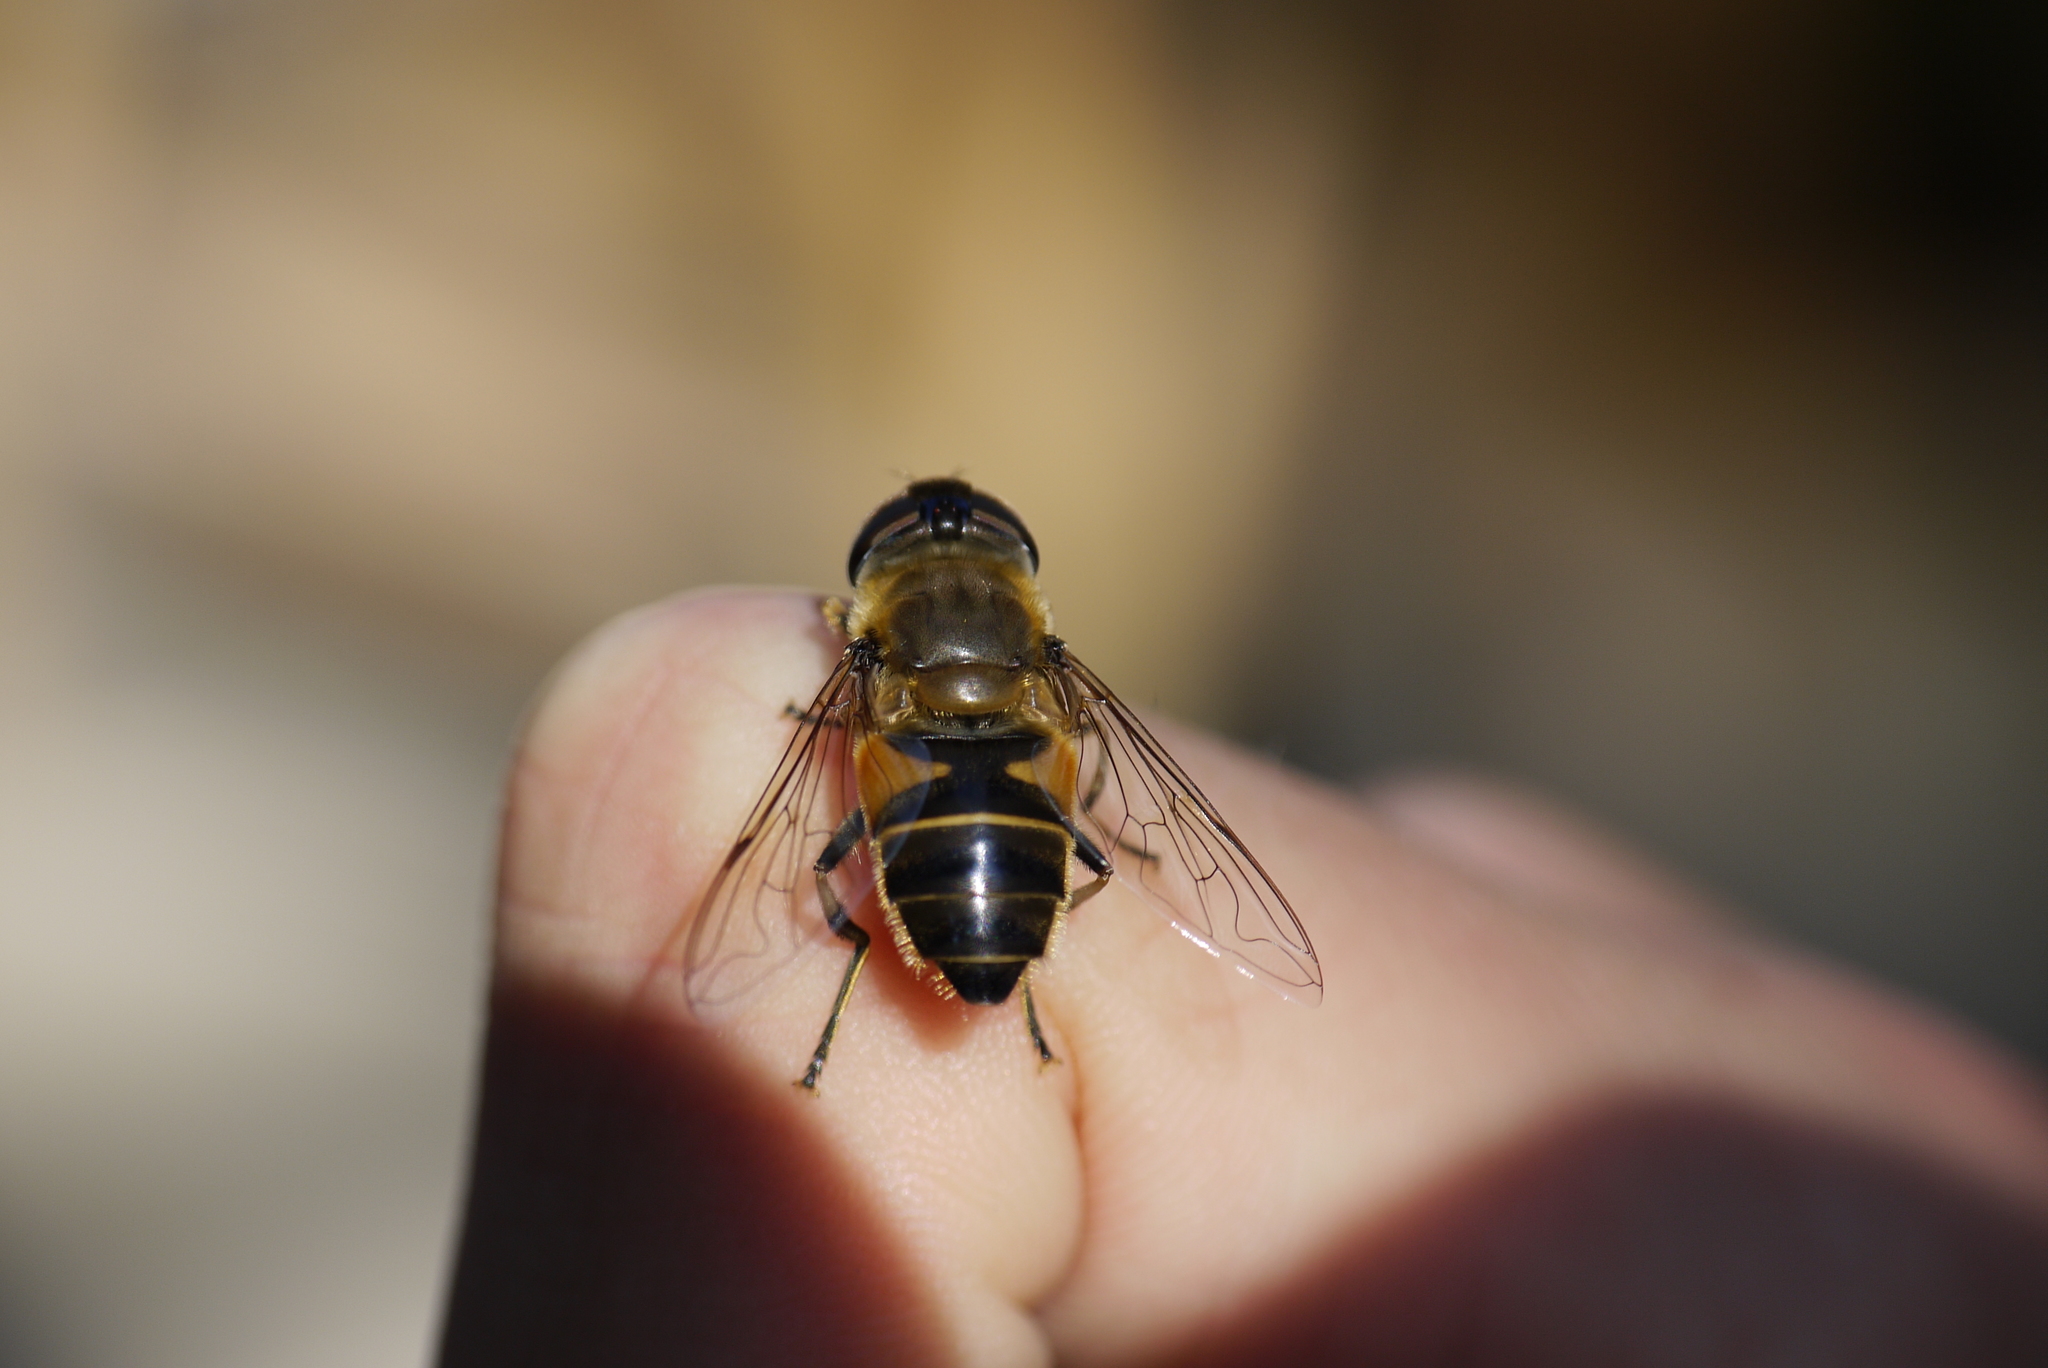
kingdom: Animalia
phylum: Arthropoda
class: Insecta
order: Diptera
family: Syrphidae
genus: Eristalis
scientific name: Eristalis pertinax
